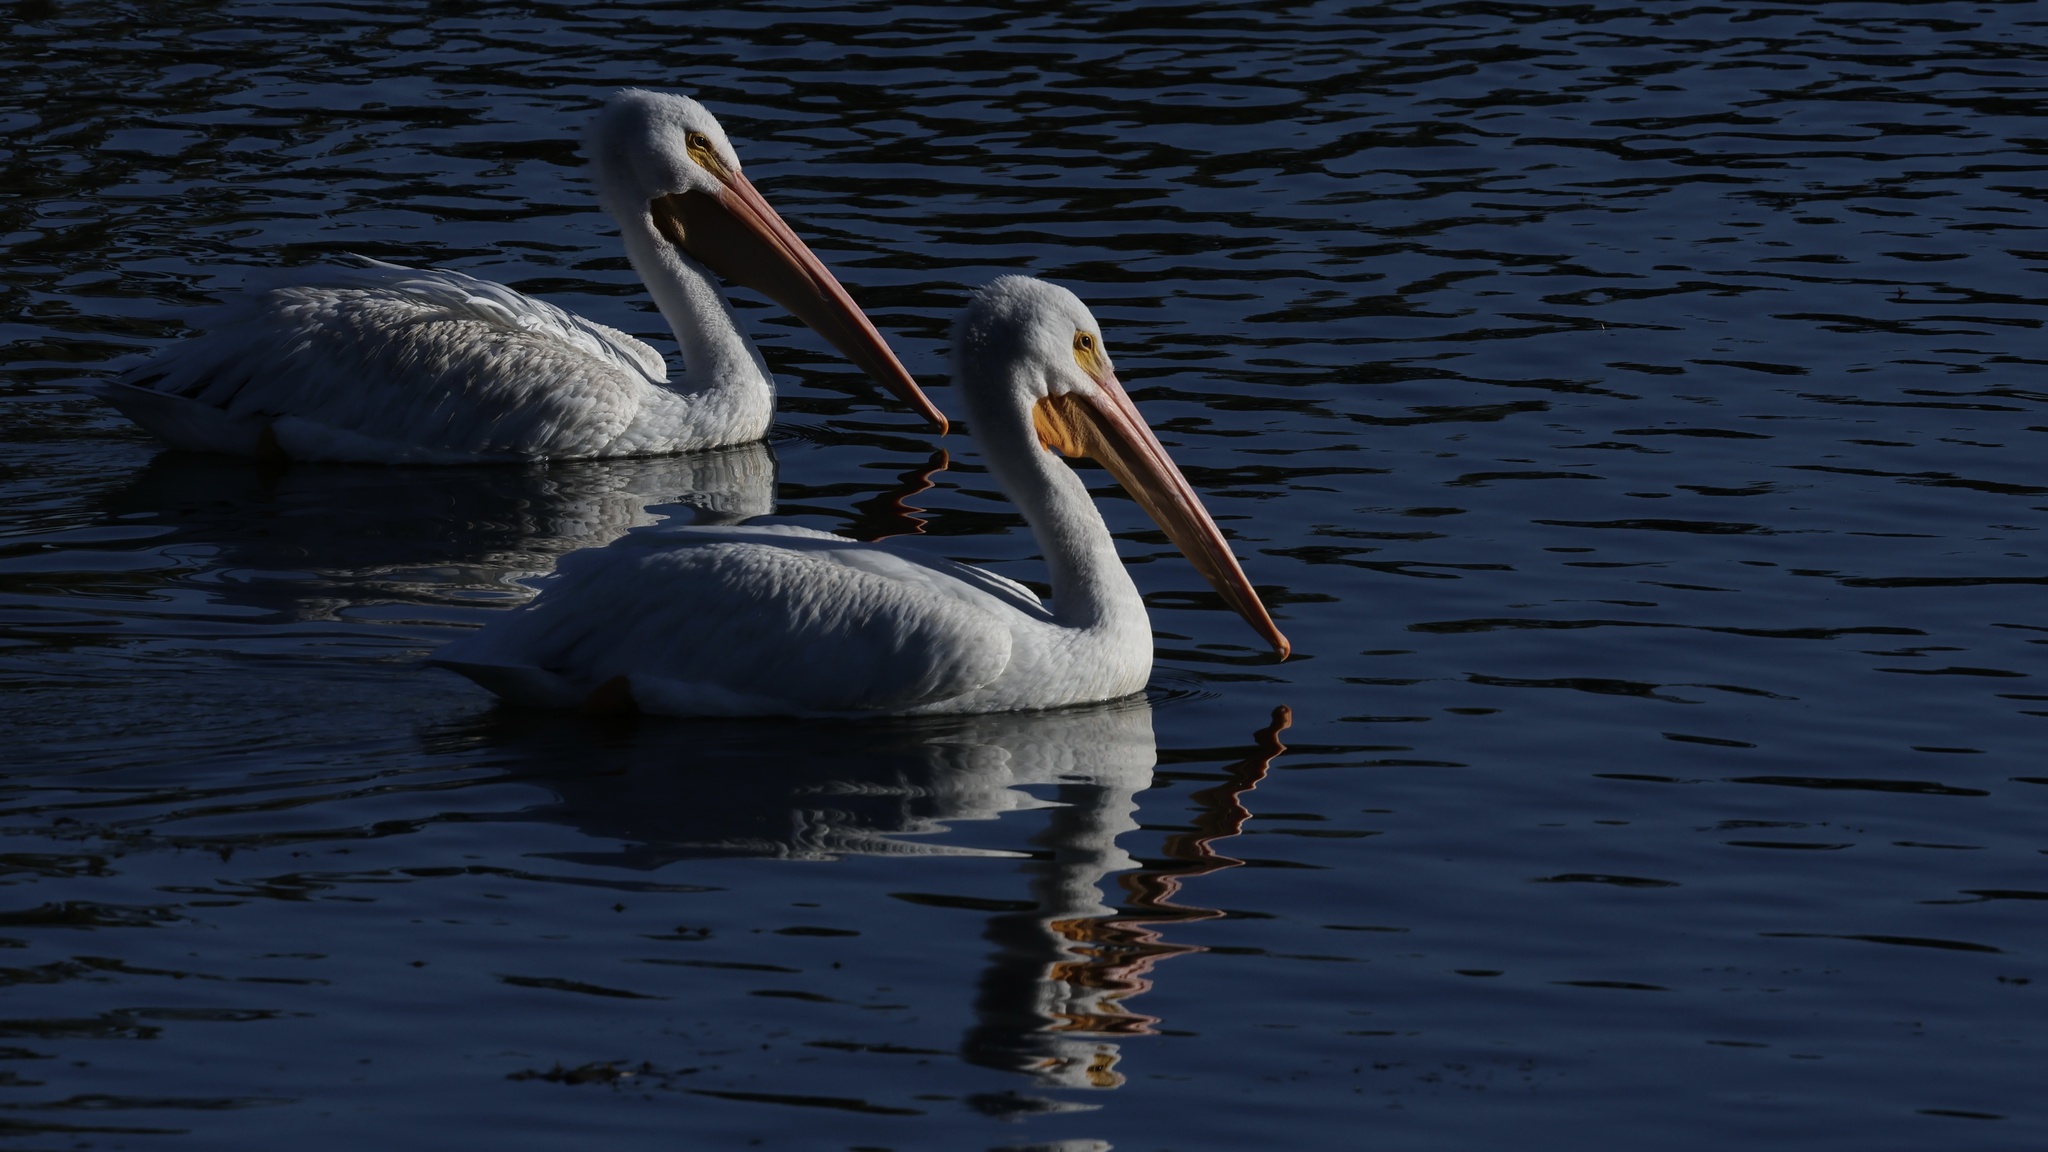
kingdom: Animalia
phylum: Chordata
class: Aves
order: Pelecaniformes
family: Pelecanidae
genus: Pelecanus
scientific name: Pelecanus erythrorhynchos
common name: American white pelican
